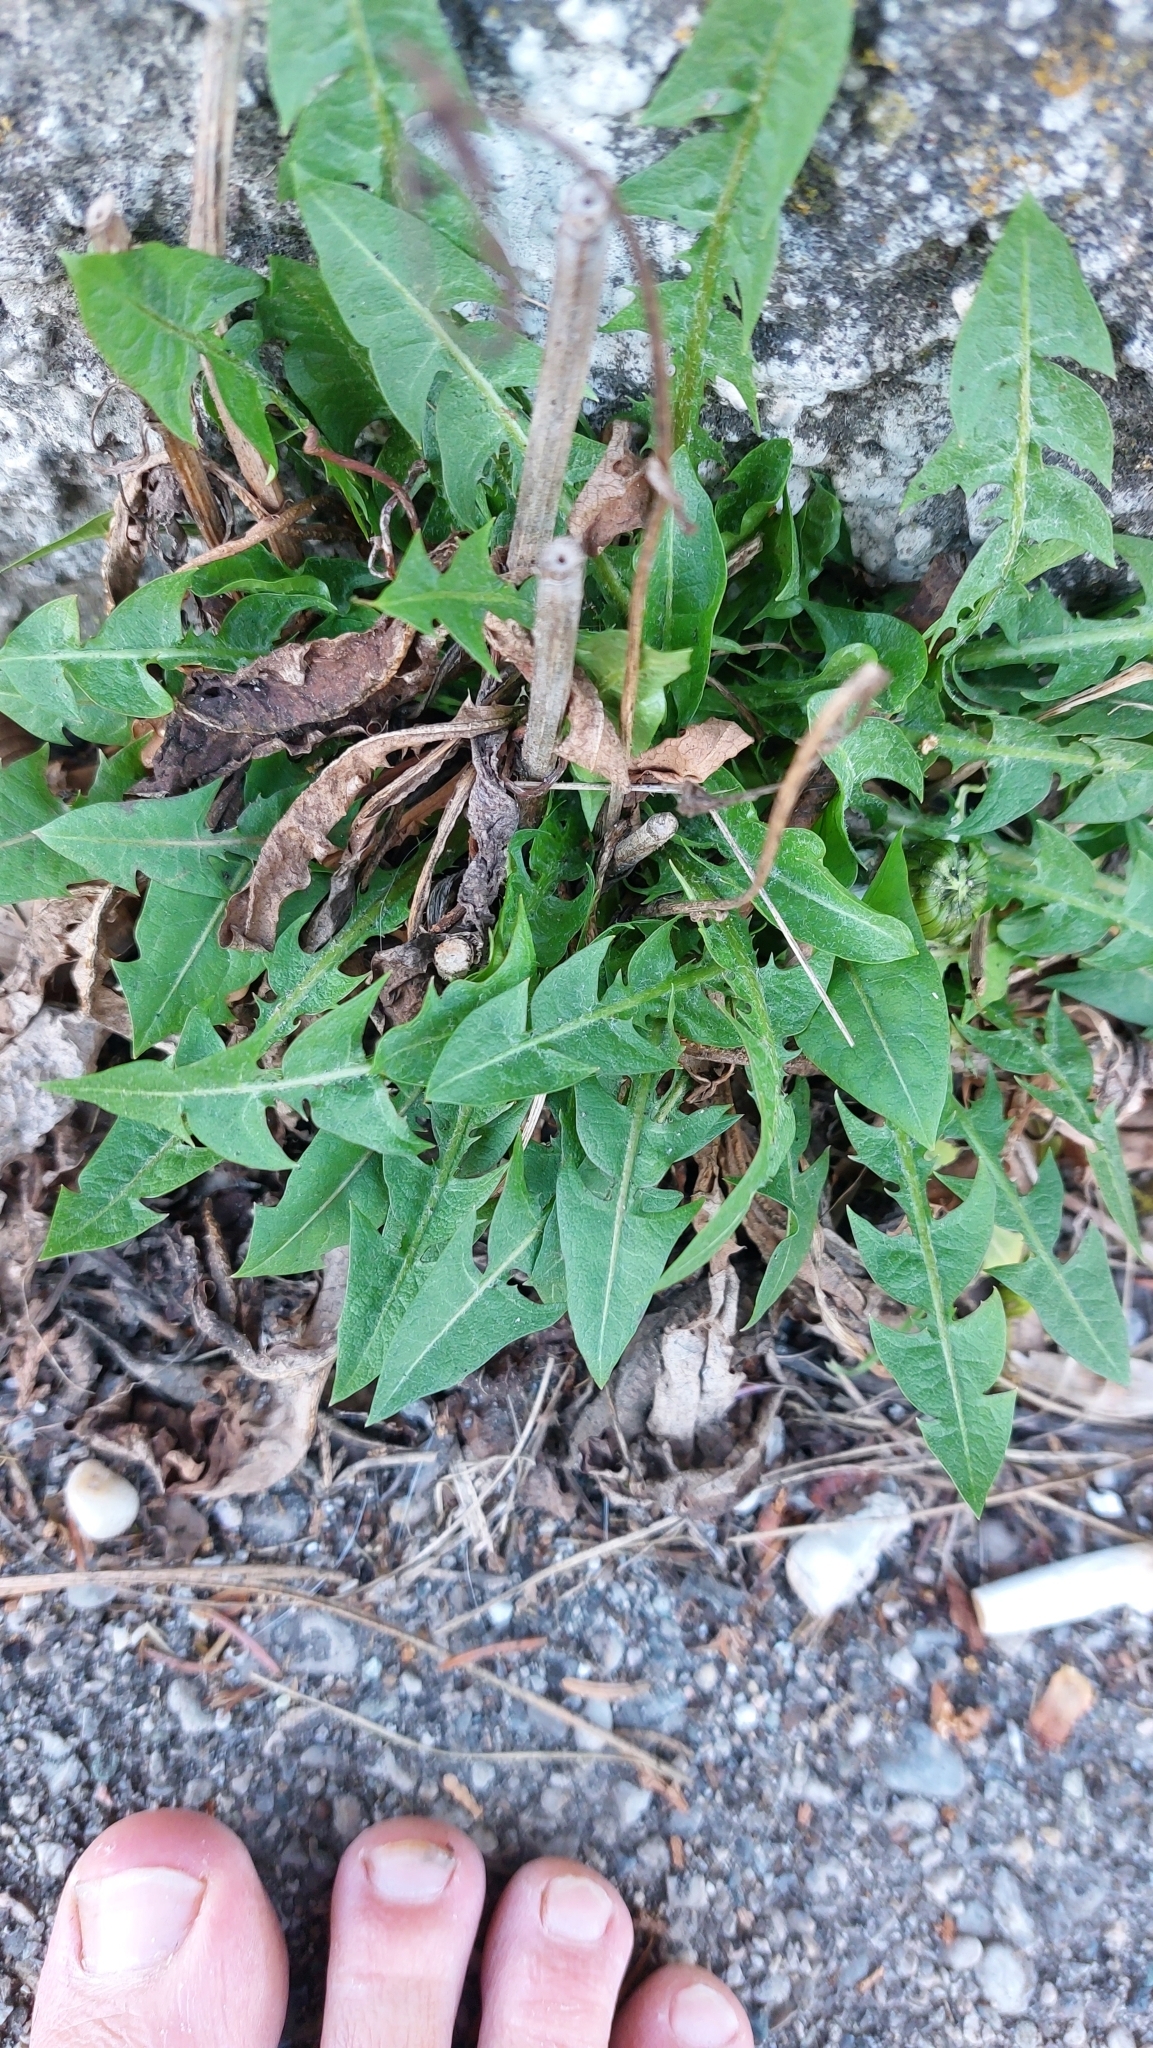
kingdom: Plantae
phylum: Tracheophyta
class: Magnoliopsida
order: Asterales
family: Asteraceae
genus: Taraxacum
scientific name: Taraxacum
